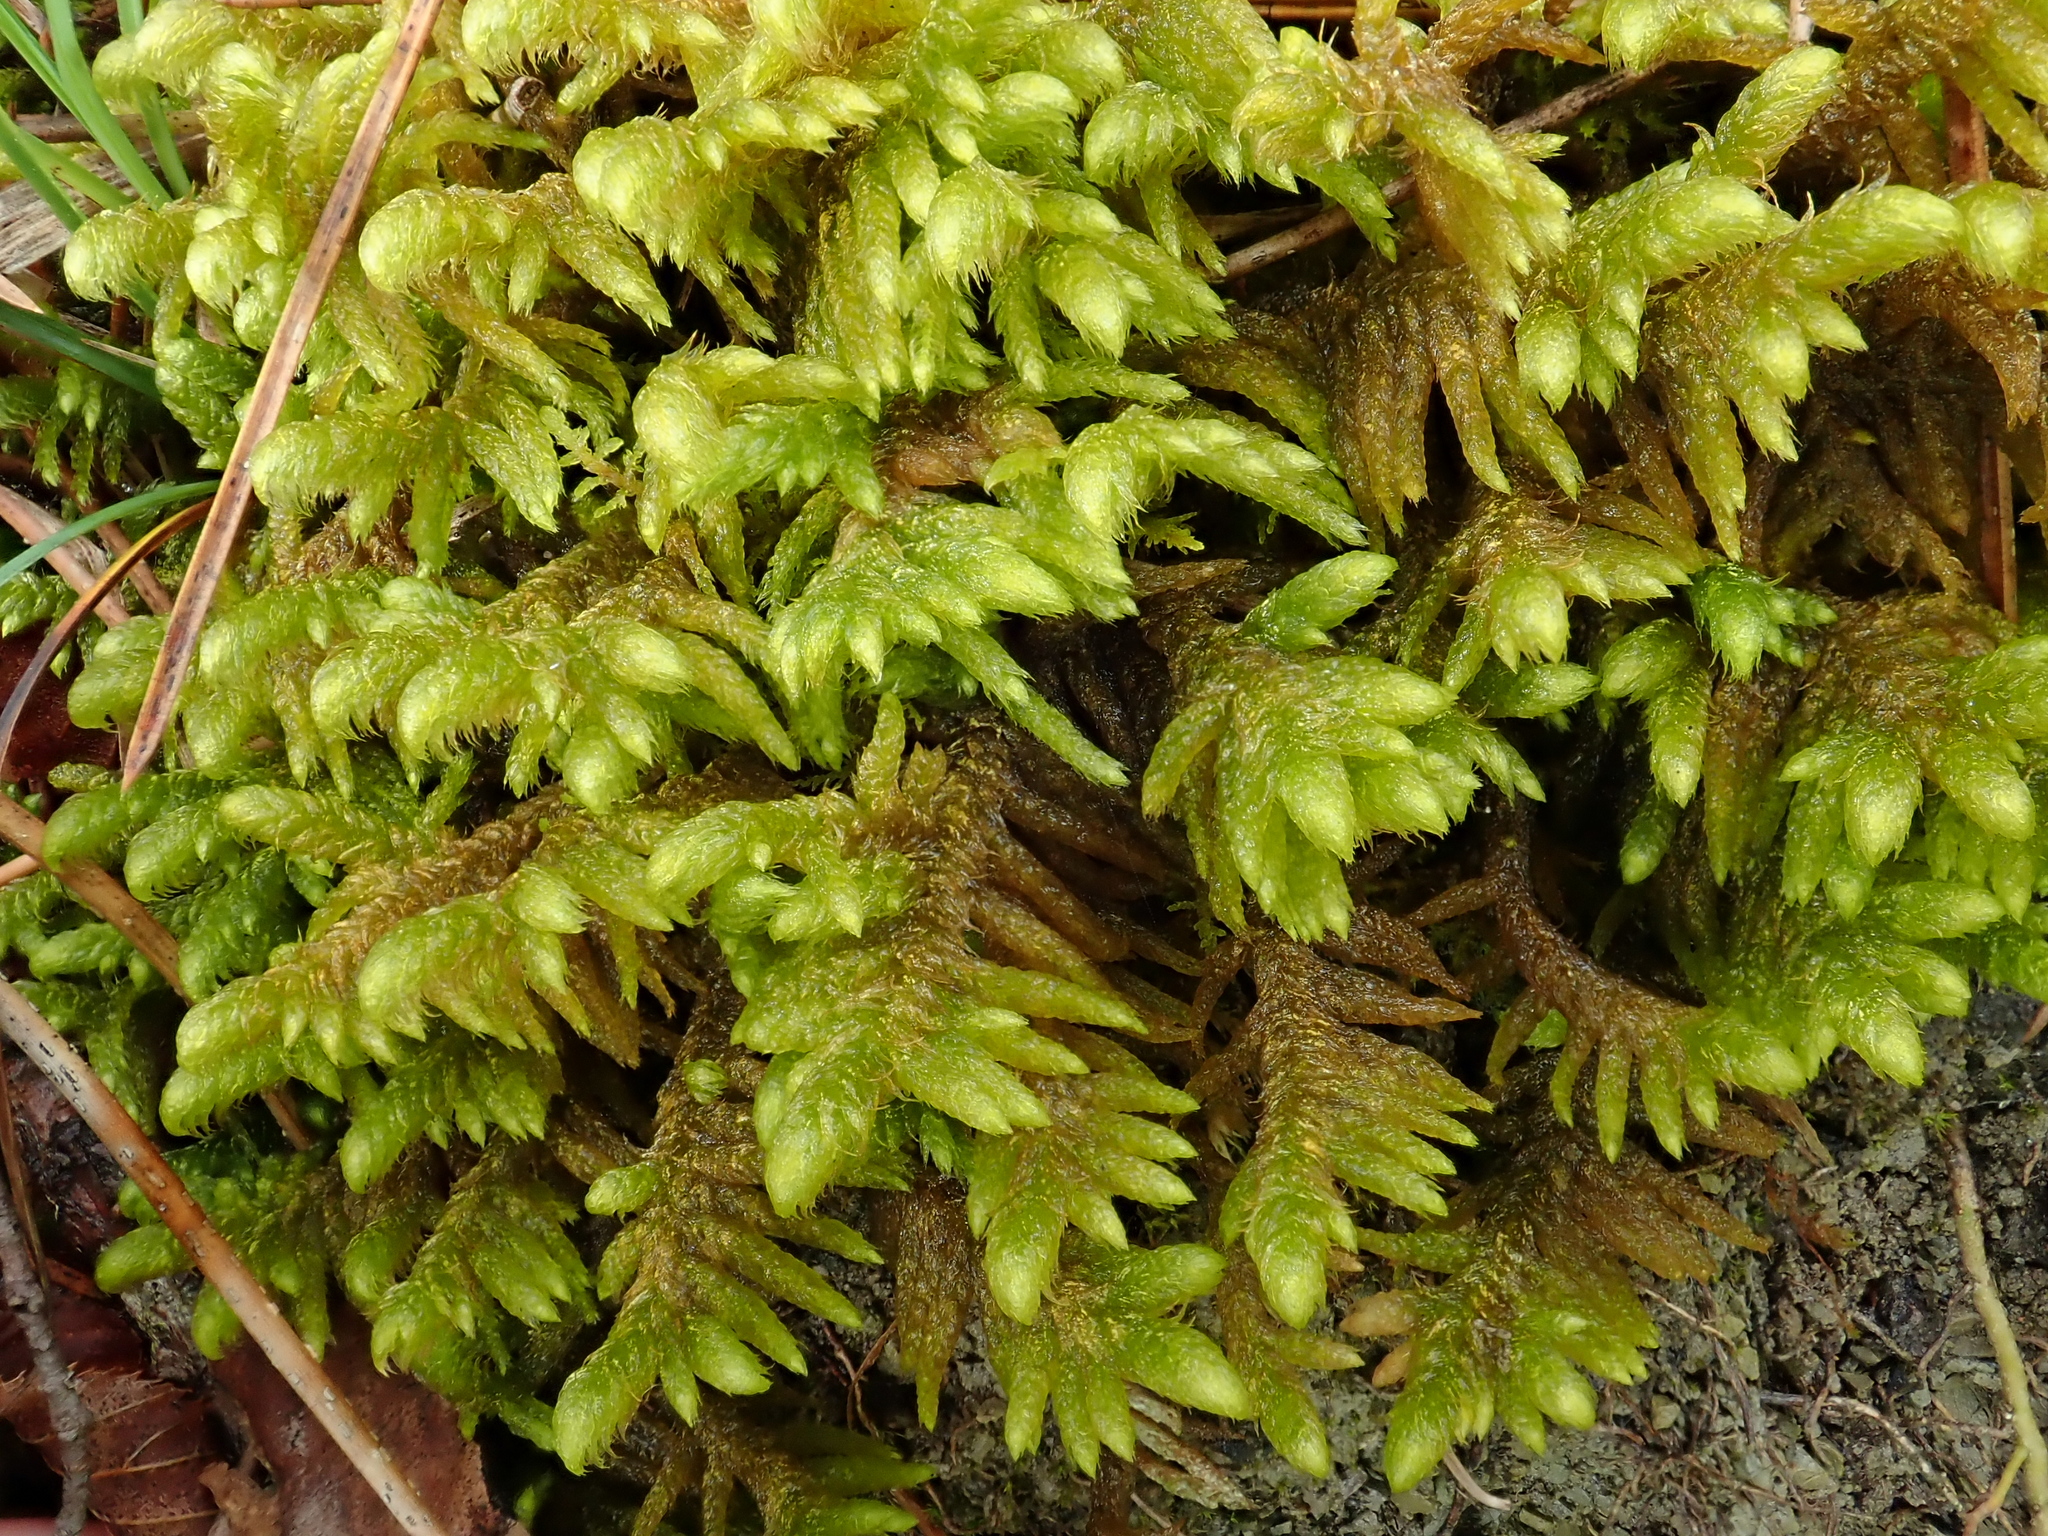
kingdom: Plantae
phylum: Bryophyta
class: Bryopsida
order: Hypnales
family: Rhytidiaceae
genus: Rhytidium
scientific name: Rhytidium rugosum
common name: Wrinkle-leaved moss
